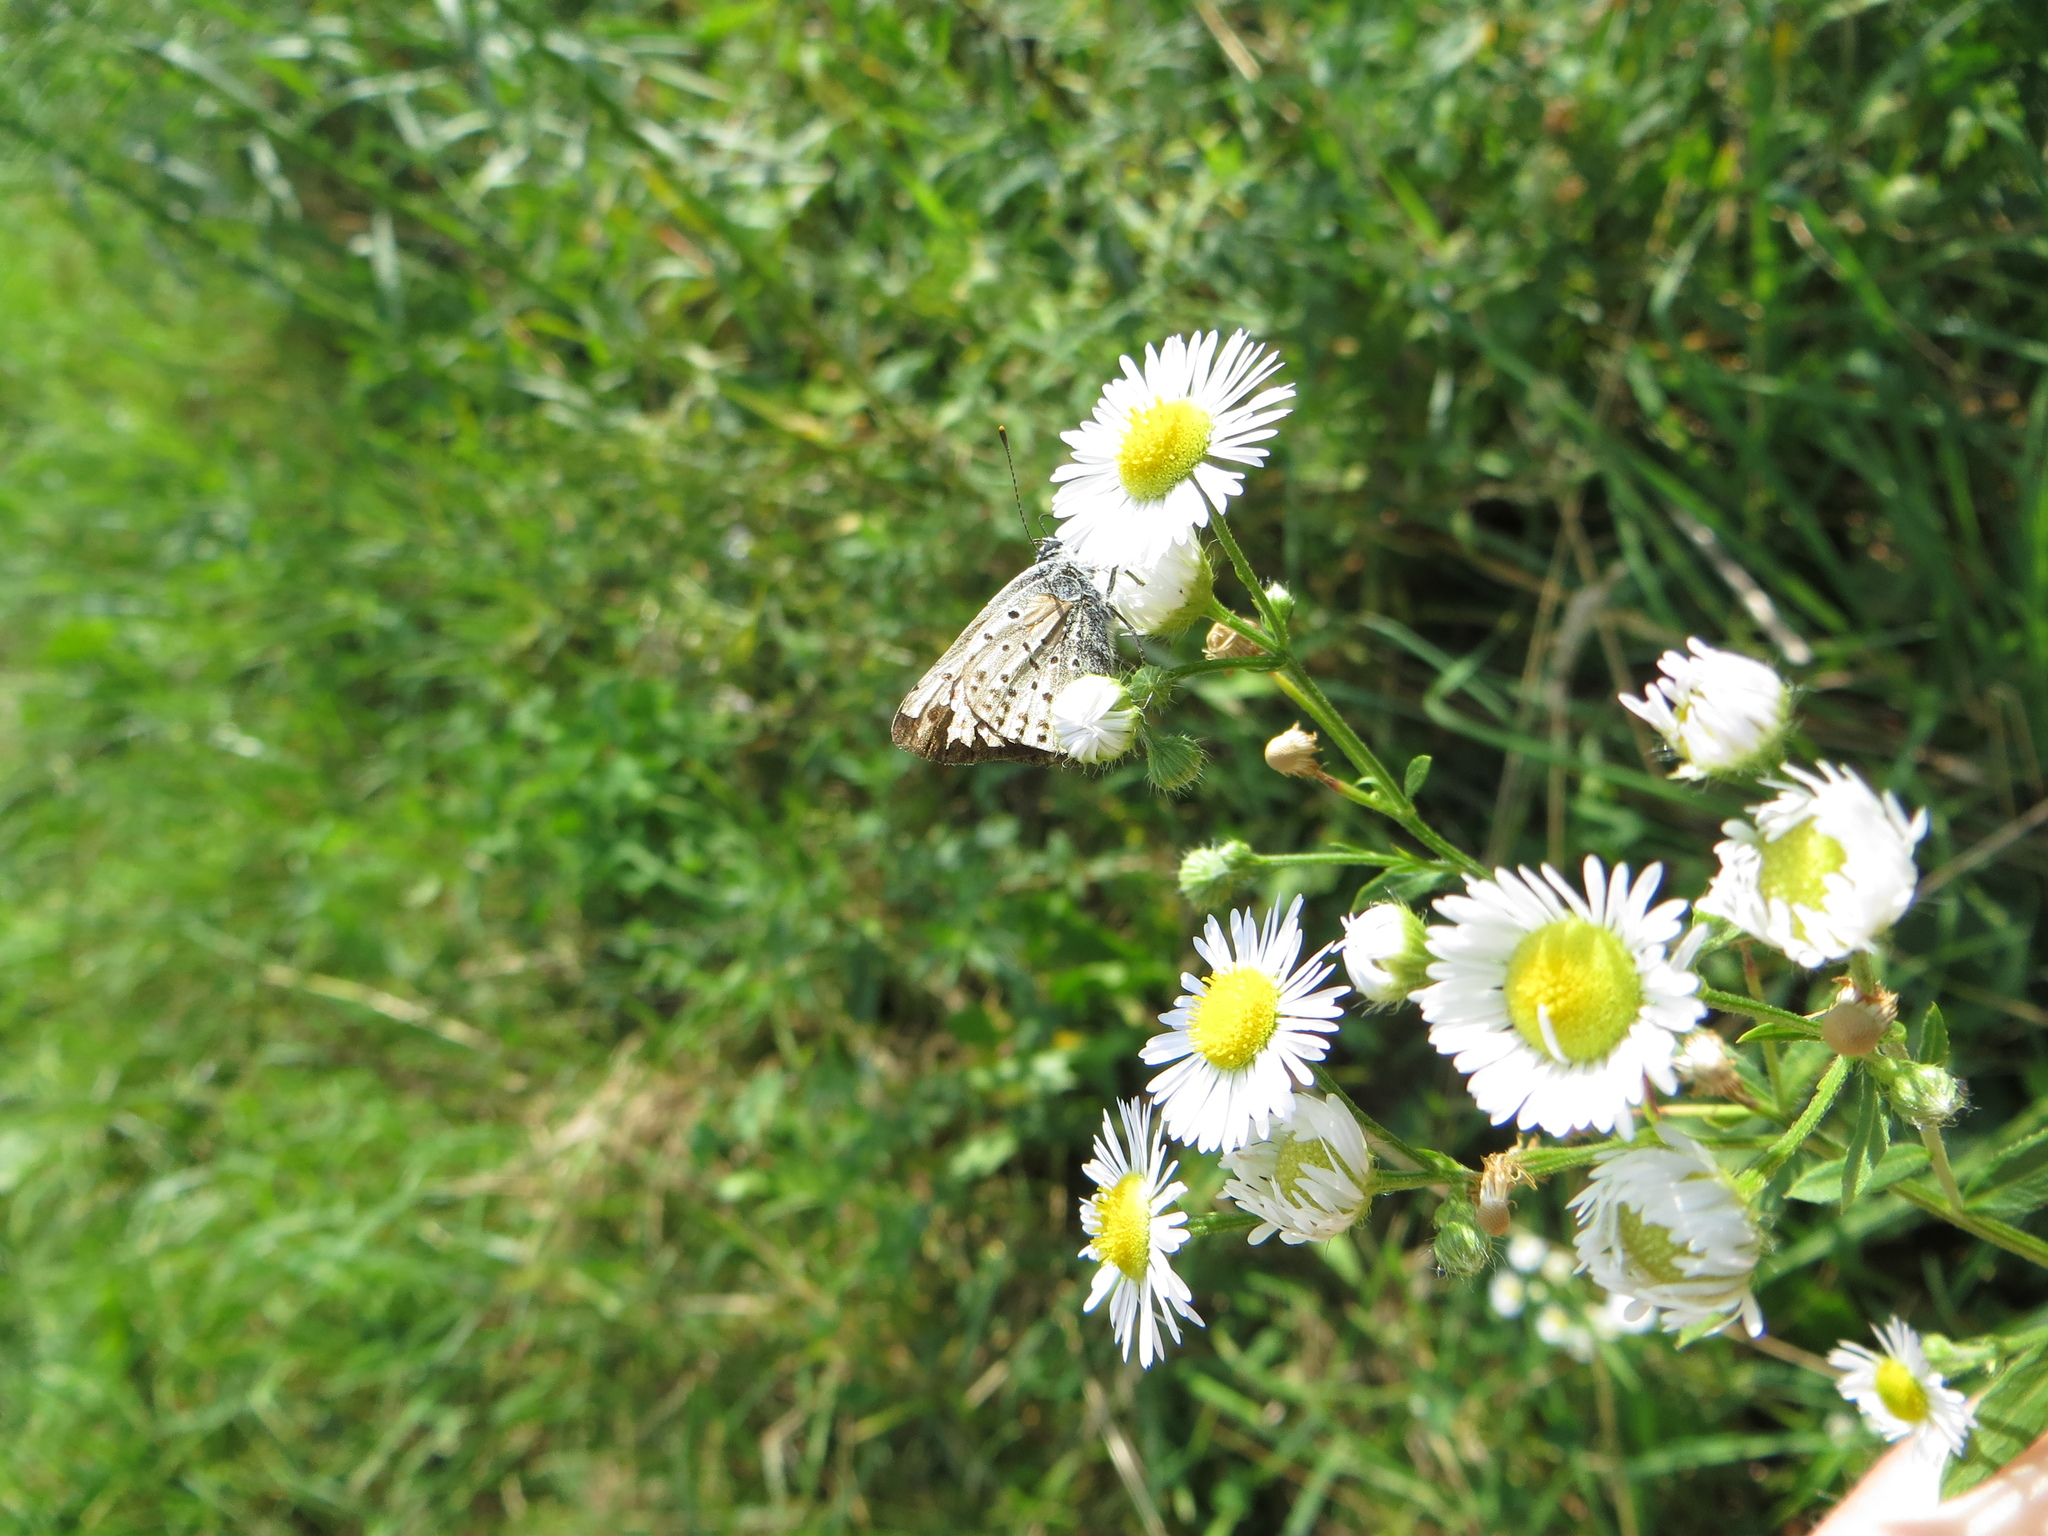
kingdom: Animalia
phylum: Arthropoda
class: Insecta
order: Lepidoptera
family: Lycaenidae
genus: Loweia
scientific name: Loweia tityrus
